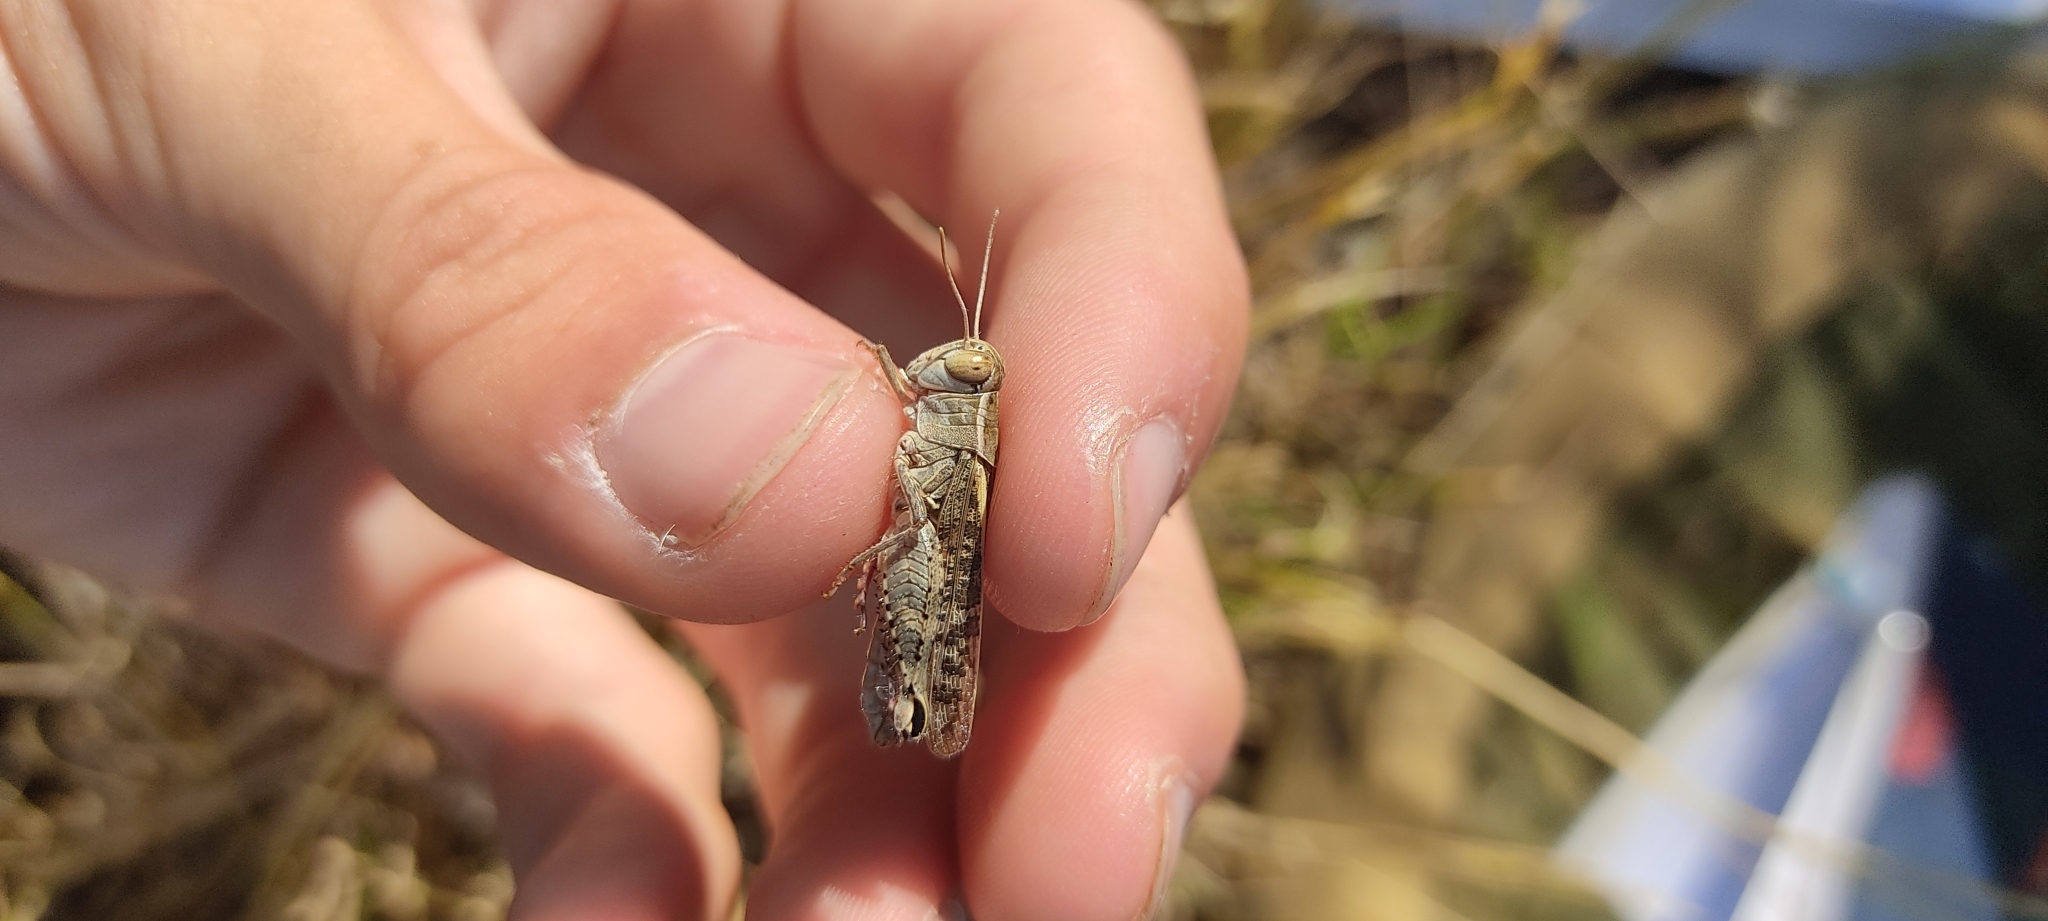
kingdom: Animalia
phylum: Arthropoda
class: Insecta
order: Orthoptera
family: Acrididae
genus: Calliptamus
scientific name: Calliptamus italicus
